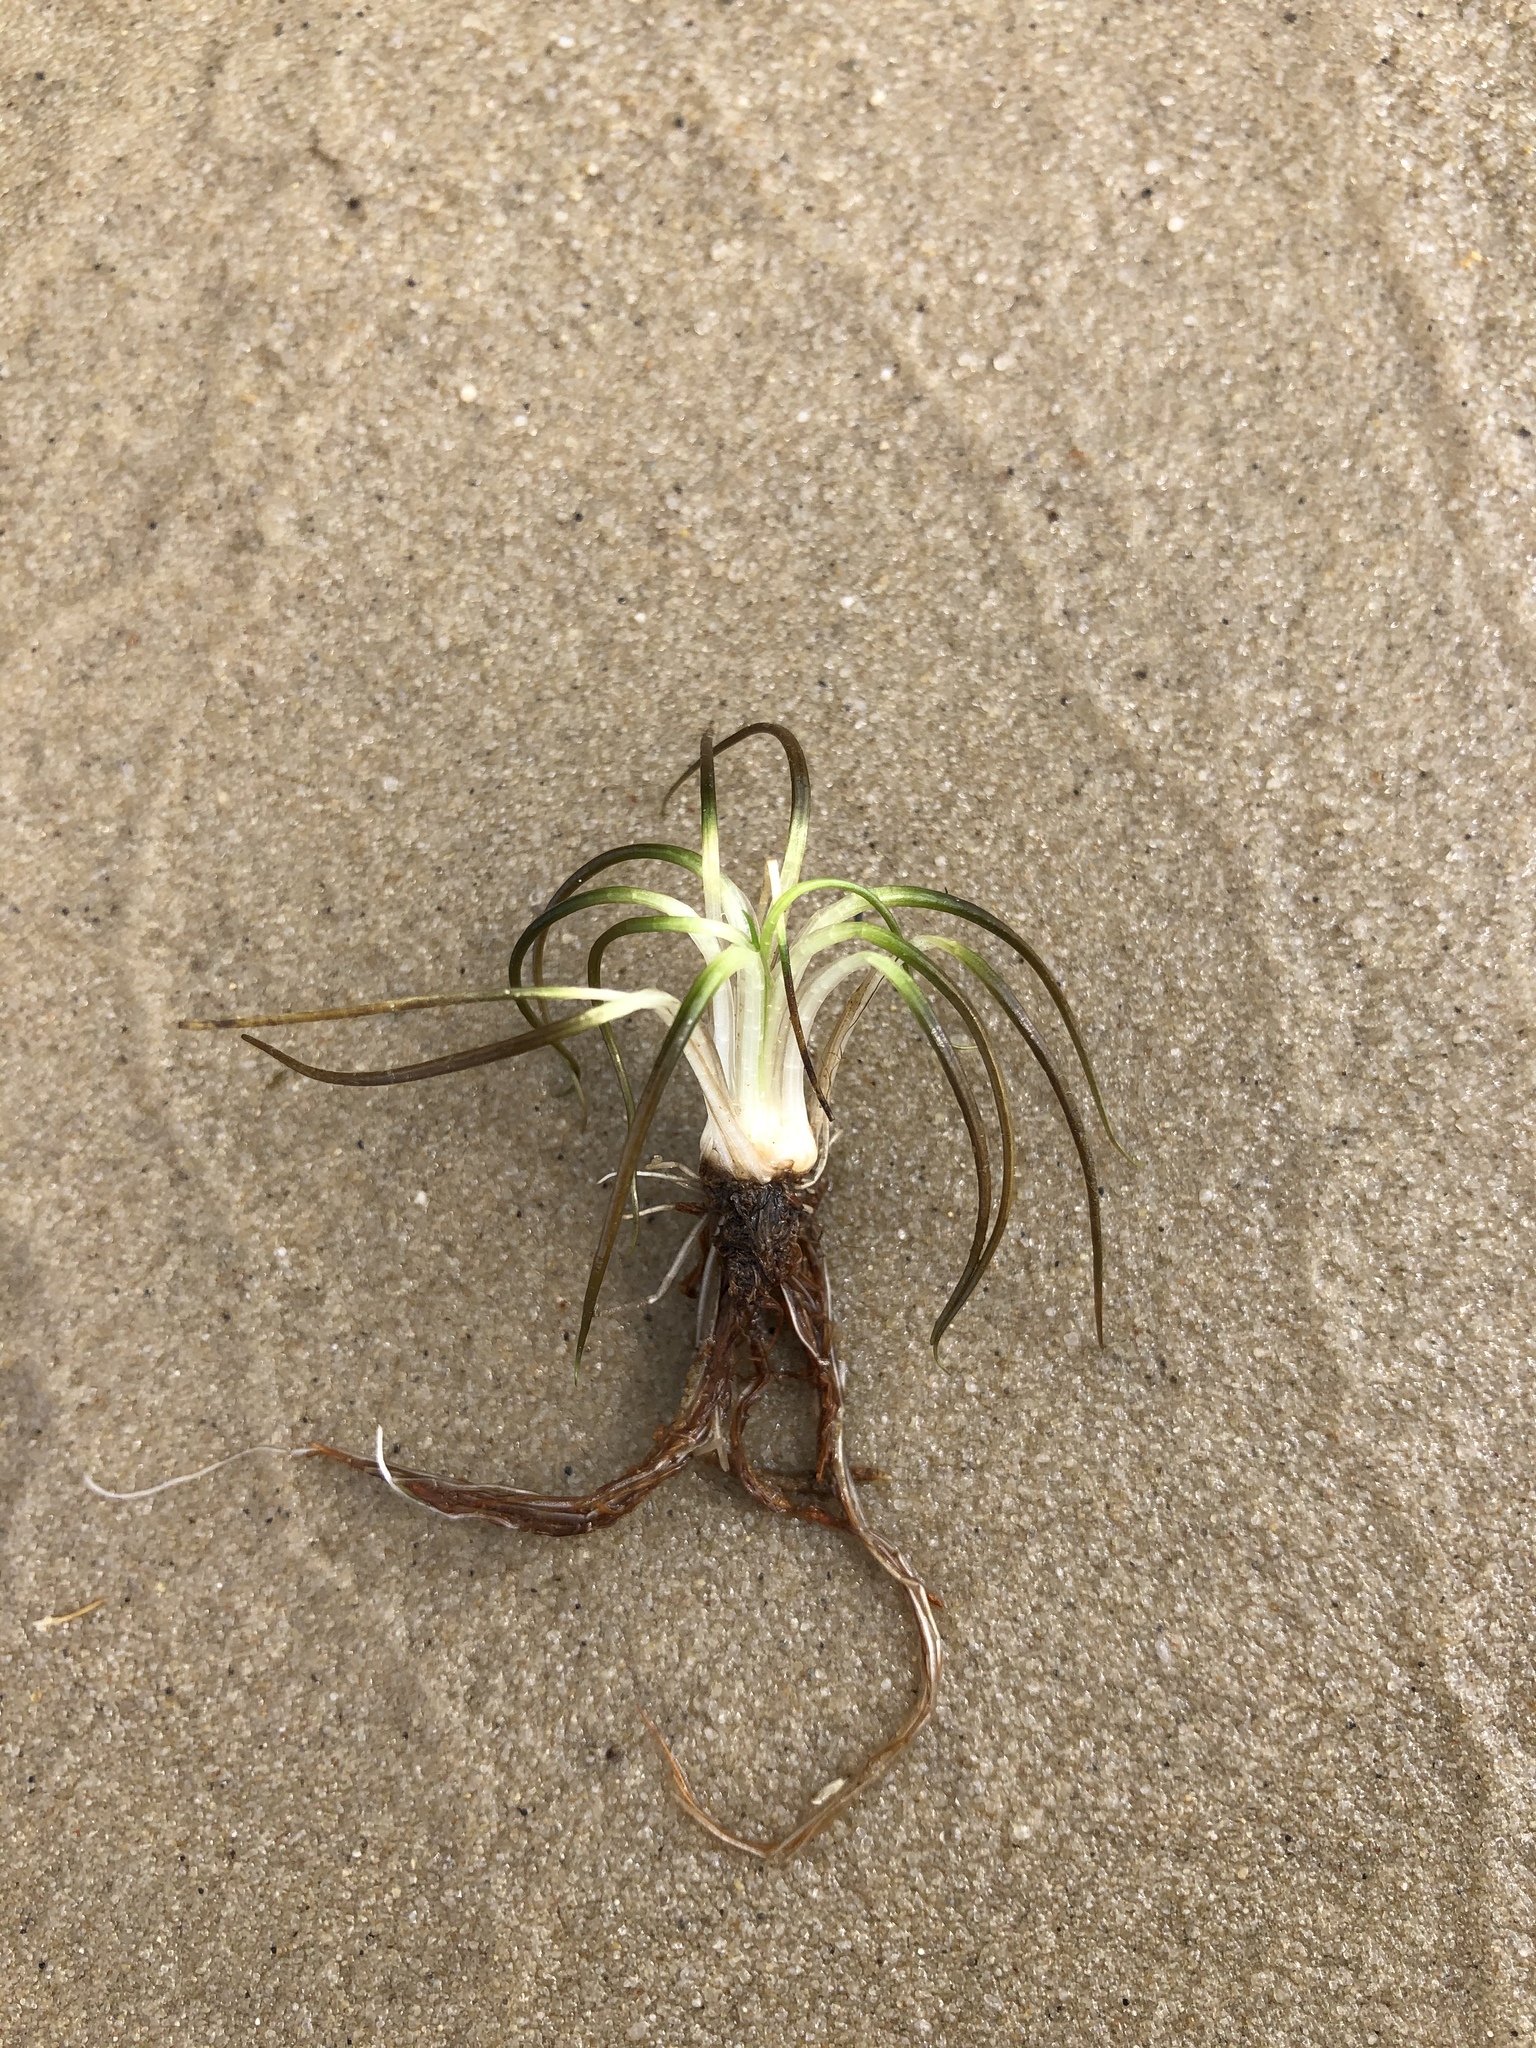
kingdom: Plantae
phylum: Tracheophyta
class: Lycopodiopsida
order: Isoetales
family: Isoetaceae
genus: Isoetes
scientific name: Isoetes echinospora
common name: Spring quillwort
